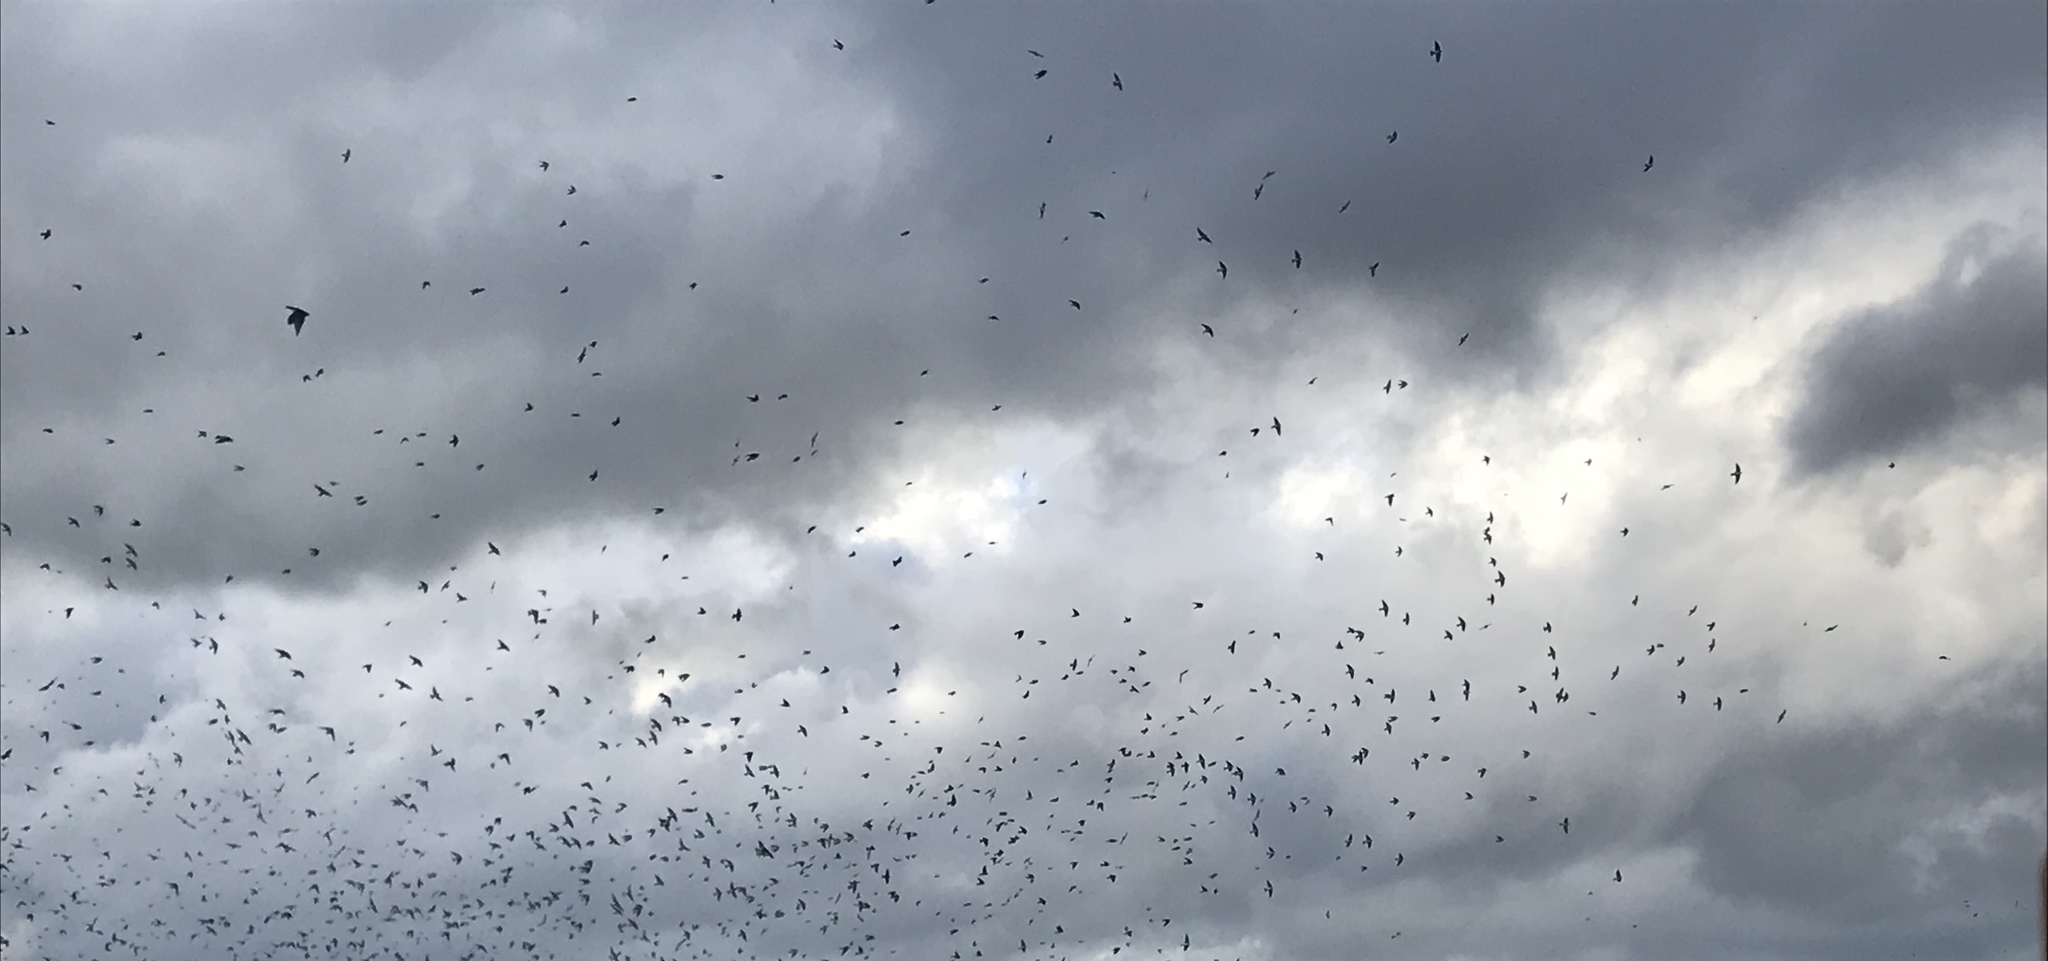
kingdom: Animalia
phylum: Chordata
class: Aves
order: Passeriformes
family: Hirundinidae
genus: Tachycineta
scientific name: Tachycineta bicolor
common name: Tree swallow
